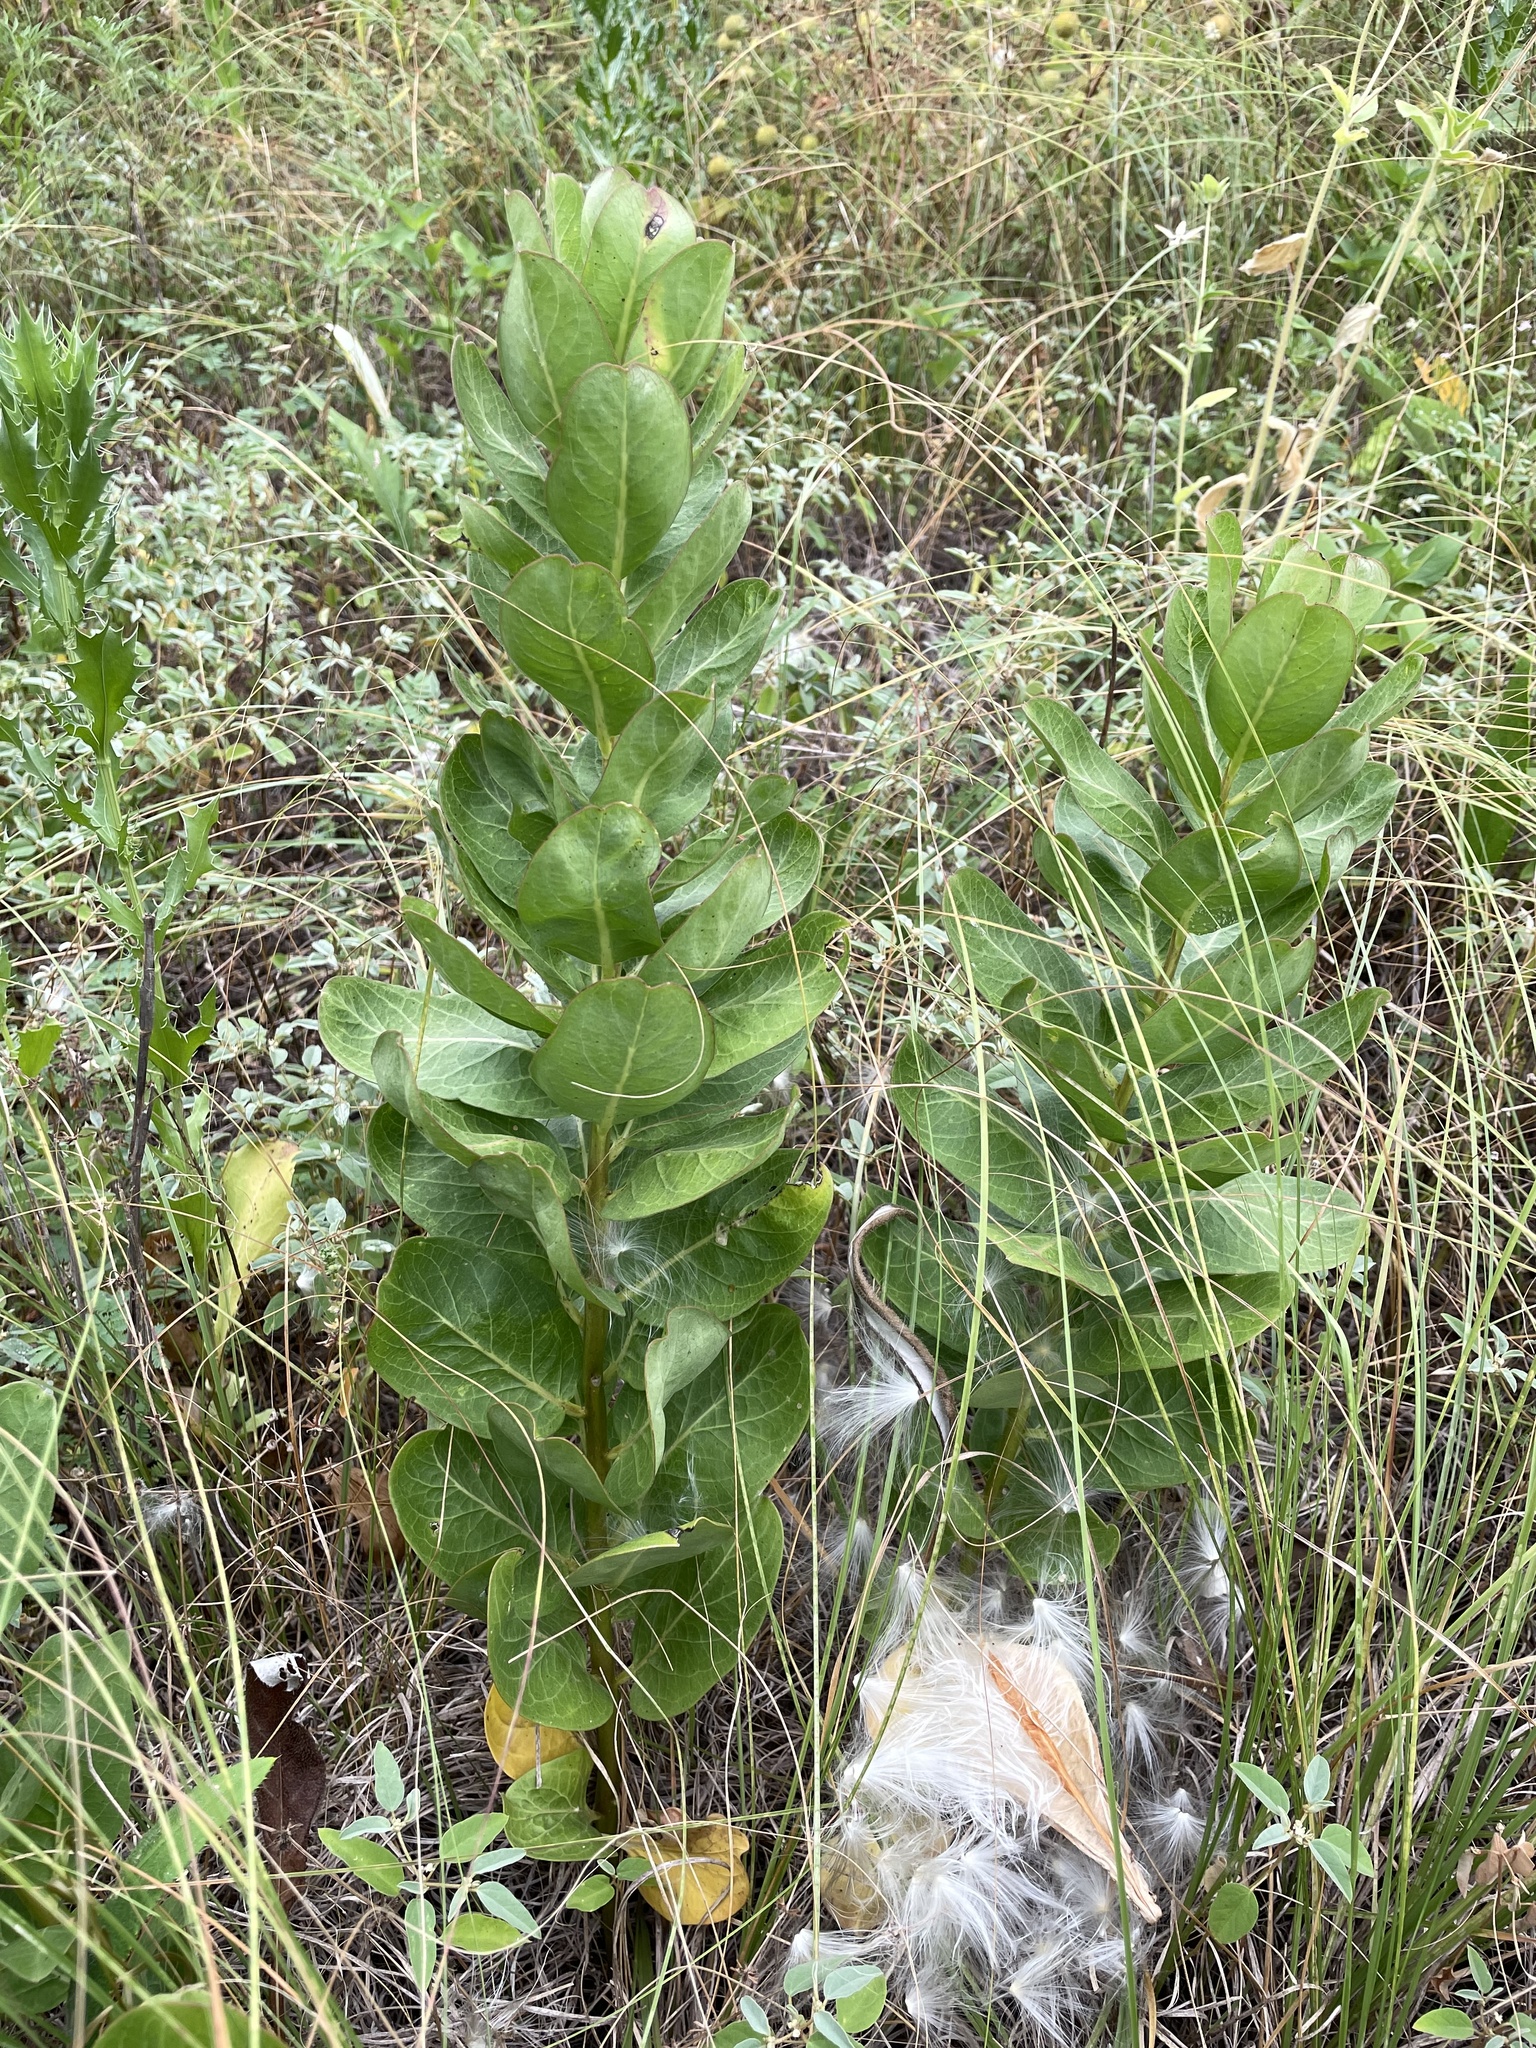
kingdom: Plantae
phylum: Tracheophyta
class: Magnoliopsida
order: Gentianales
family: Apocynaceae
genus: Asclepias
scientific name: Asclepias viridis
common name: Antelope-horns
